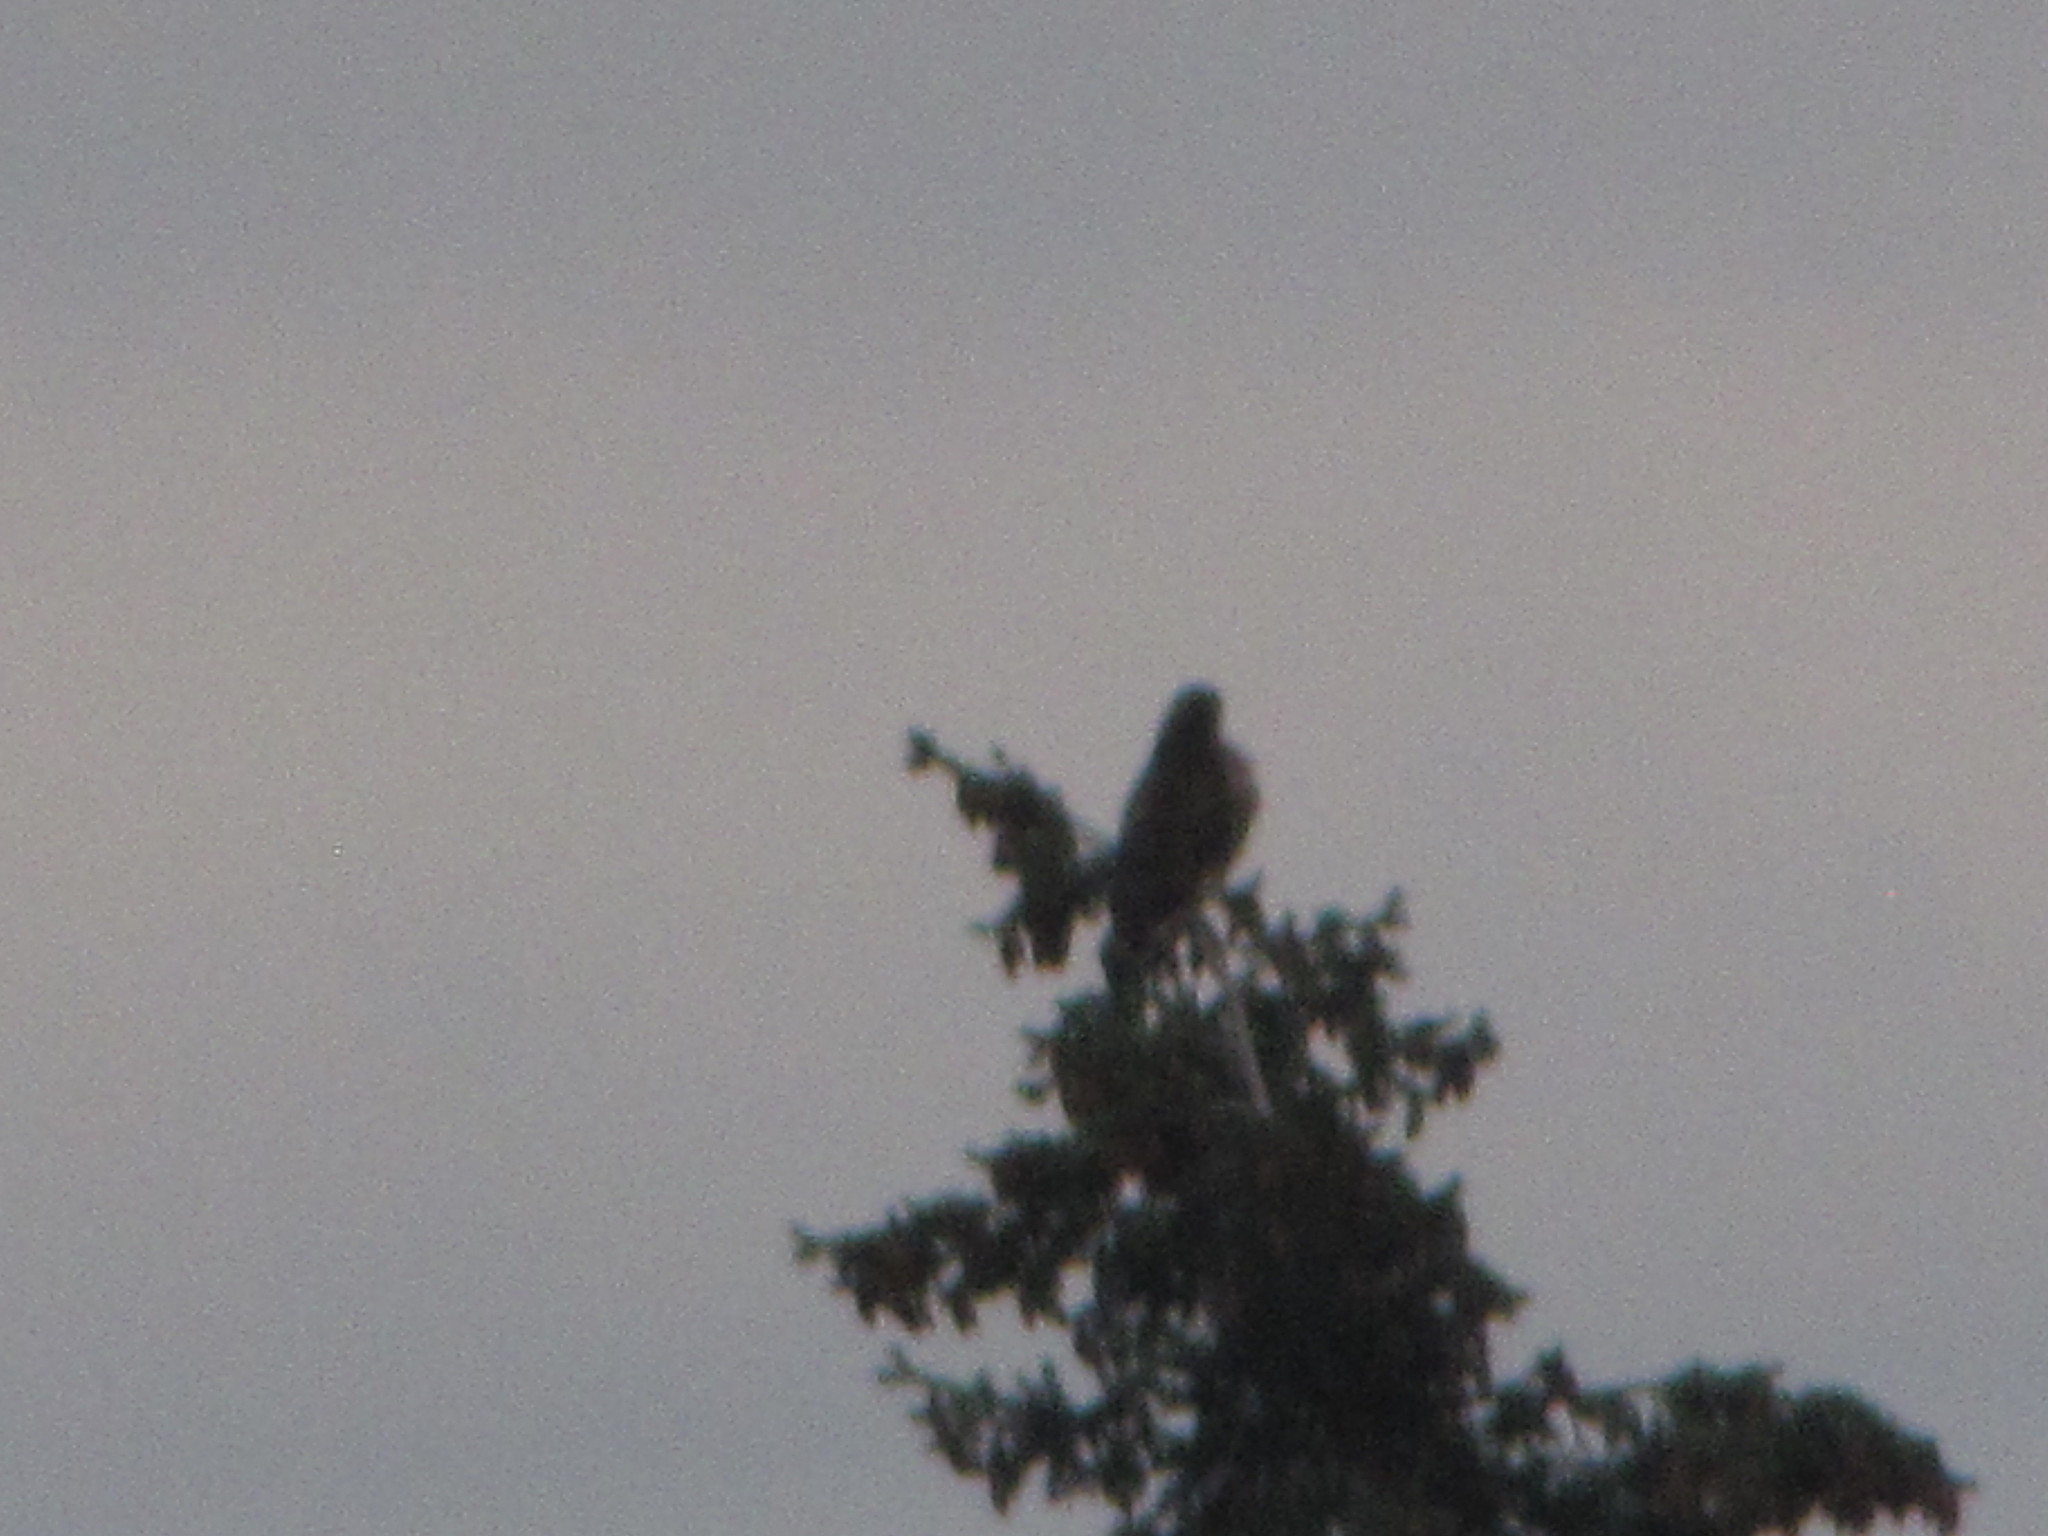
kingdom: Animalia
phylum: Chordata
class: Aves
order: Accipitriformes
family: Accipitridae
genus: Buteo
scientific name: Buteo jamaicensis
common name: Red-tailed hawk
